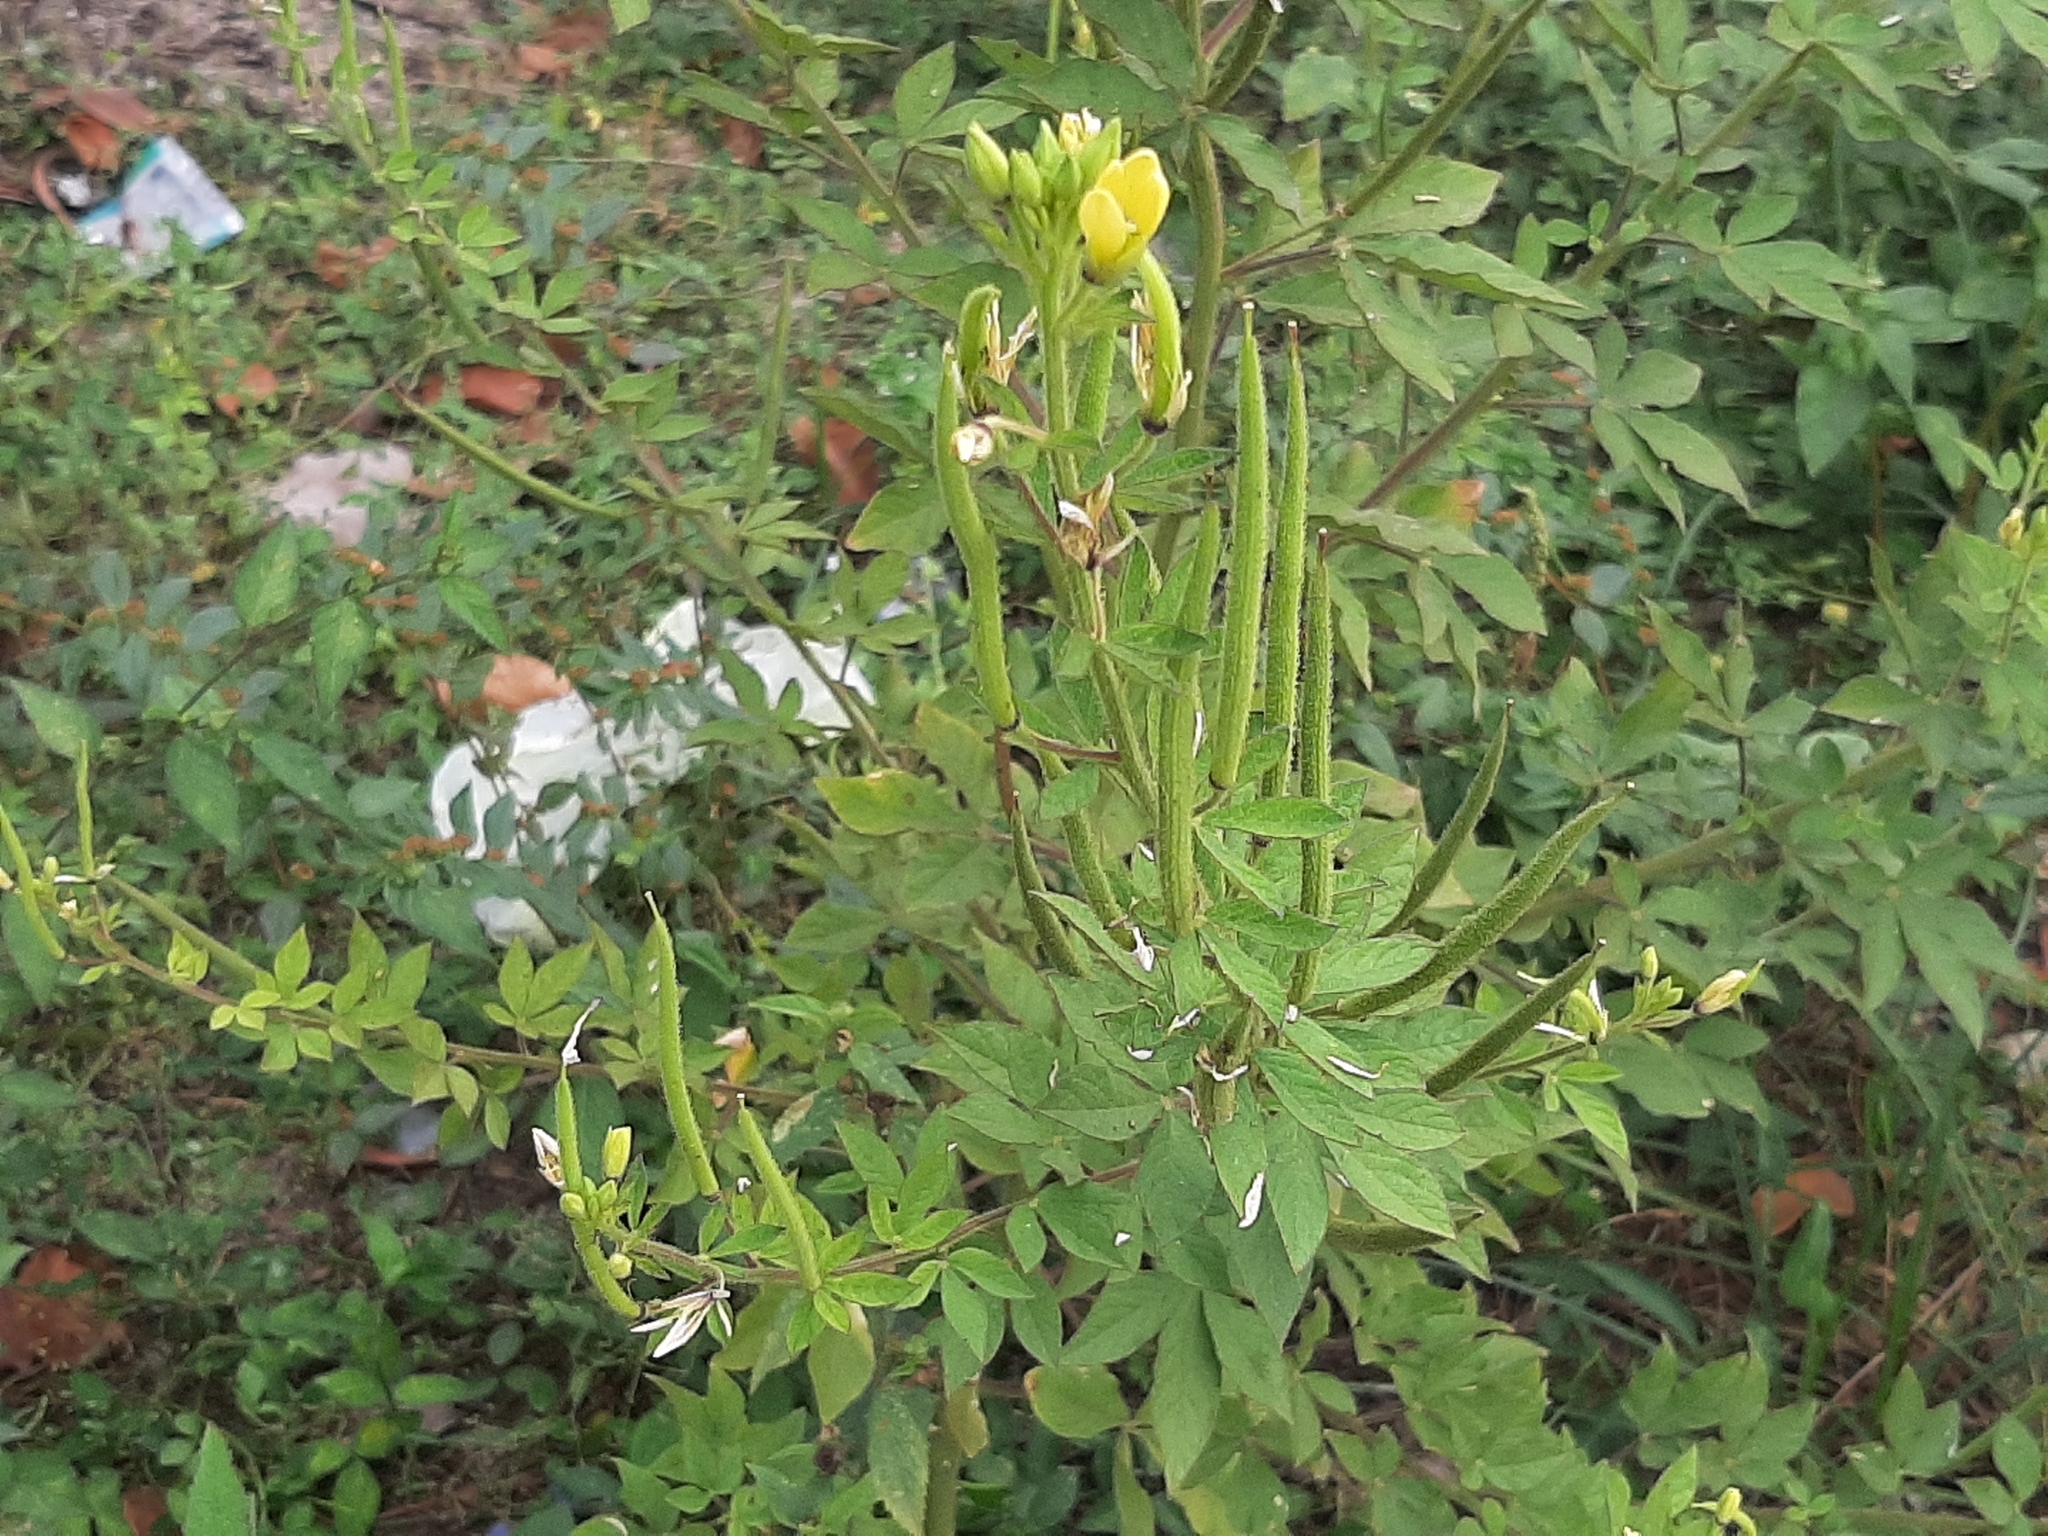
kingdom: Plantae
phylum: Tracheophyta
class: Magnoliopsida
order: Brassicales
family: Cleomaceae
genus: Arivela
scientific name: Arivela viscosa
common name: Asian spiderflower
